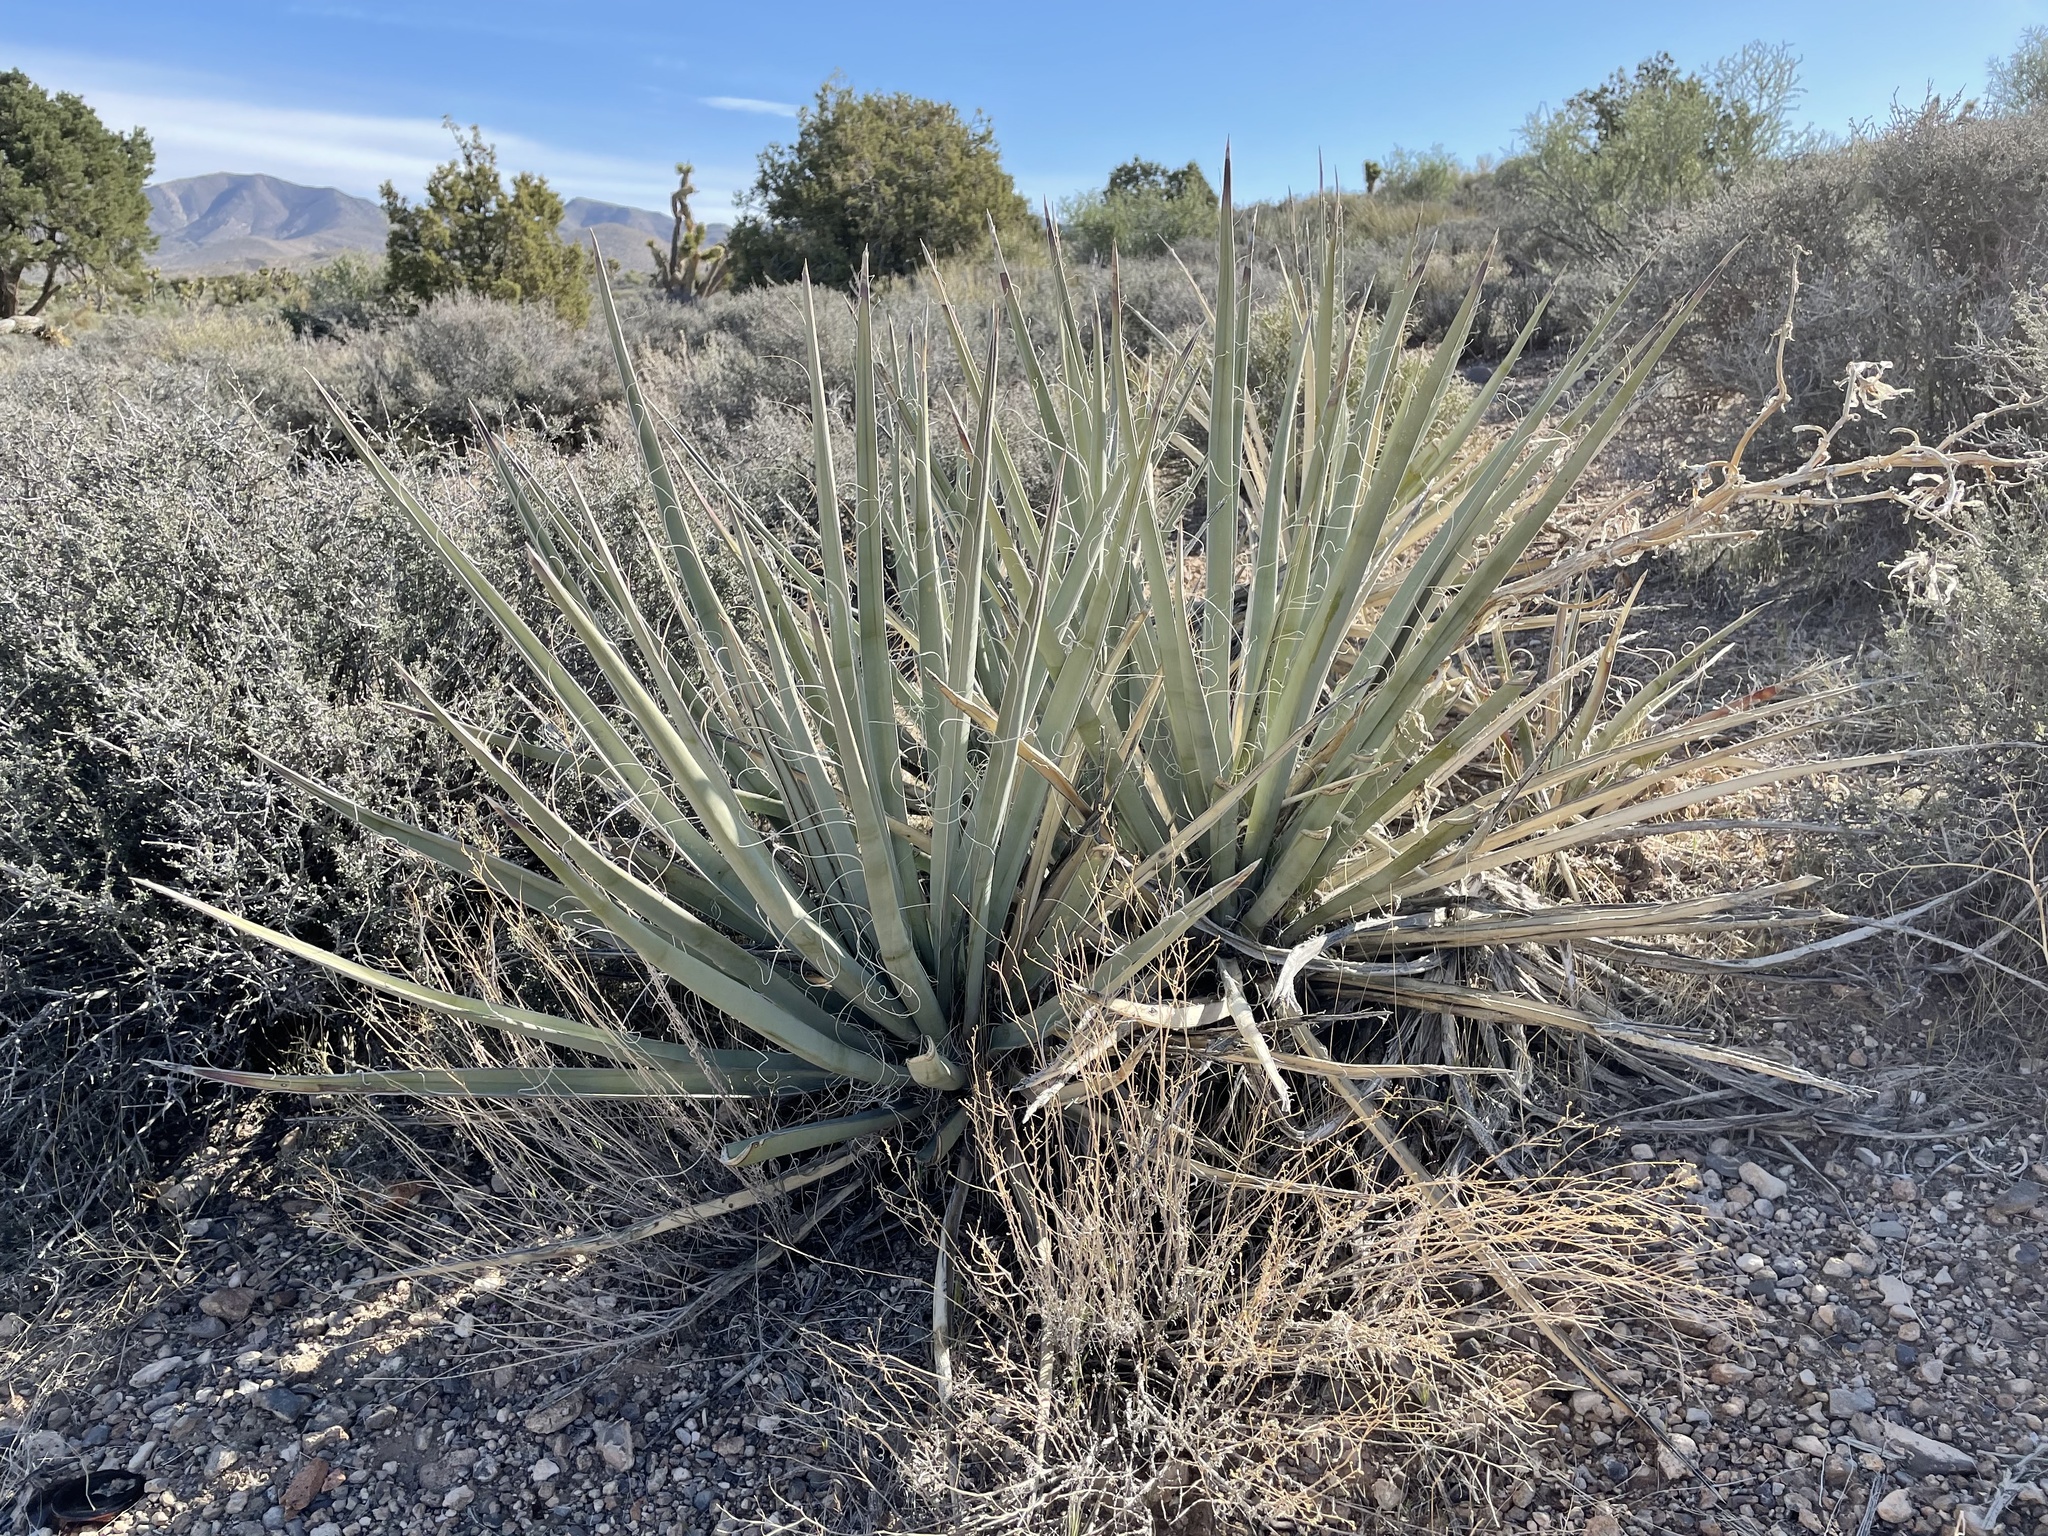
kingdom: Plantae
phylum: Tracheophyta
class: Liliopsida
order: Asparagales
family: Asparagaceae
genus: Yucca
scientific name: Yucca baccata
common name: Banana yucca
